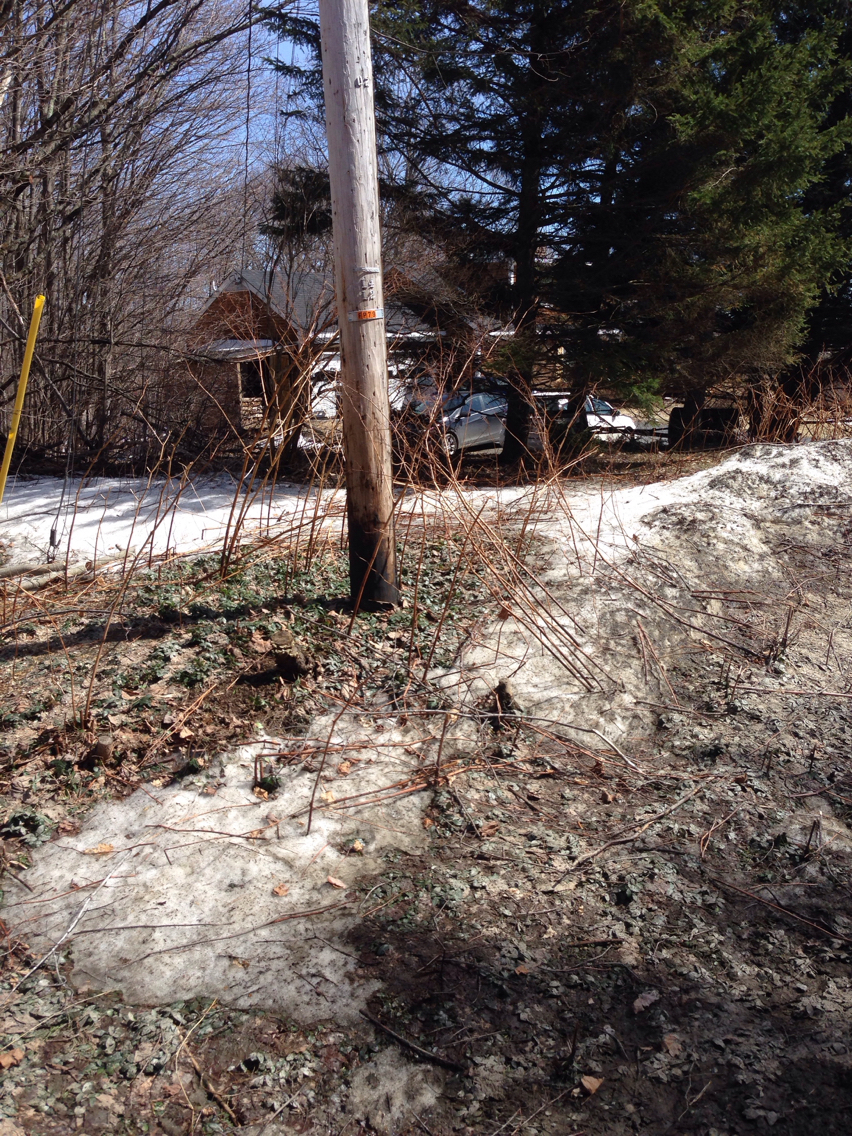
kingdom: Plantae
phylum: Tracheophyta
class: Magnoliopsida
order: Caryophyllales
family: Polygonaceae
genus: Reynoutria
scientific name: Reynoutria japonica
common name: Japanese knotweed
